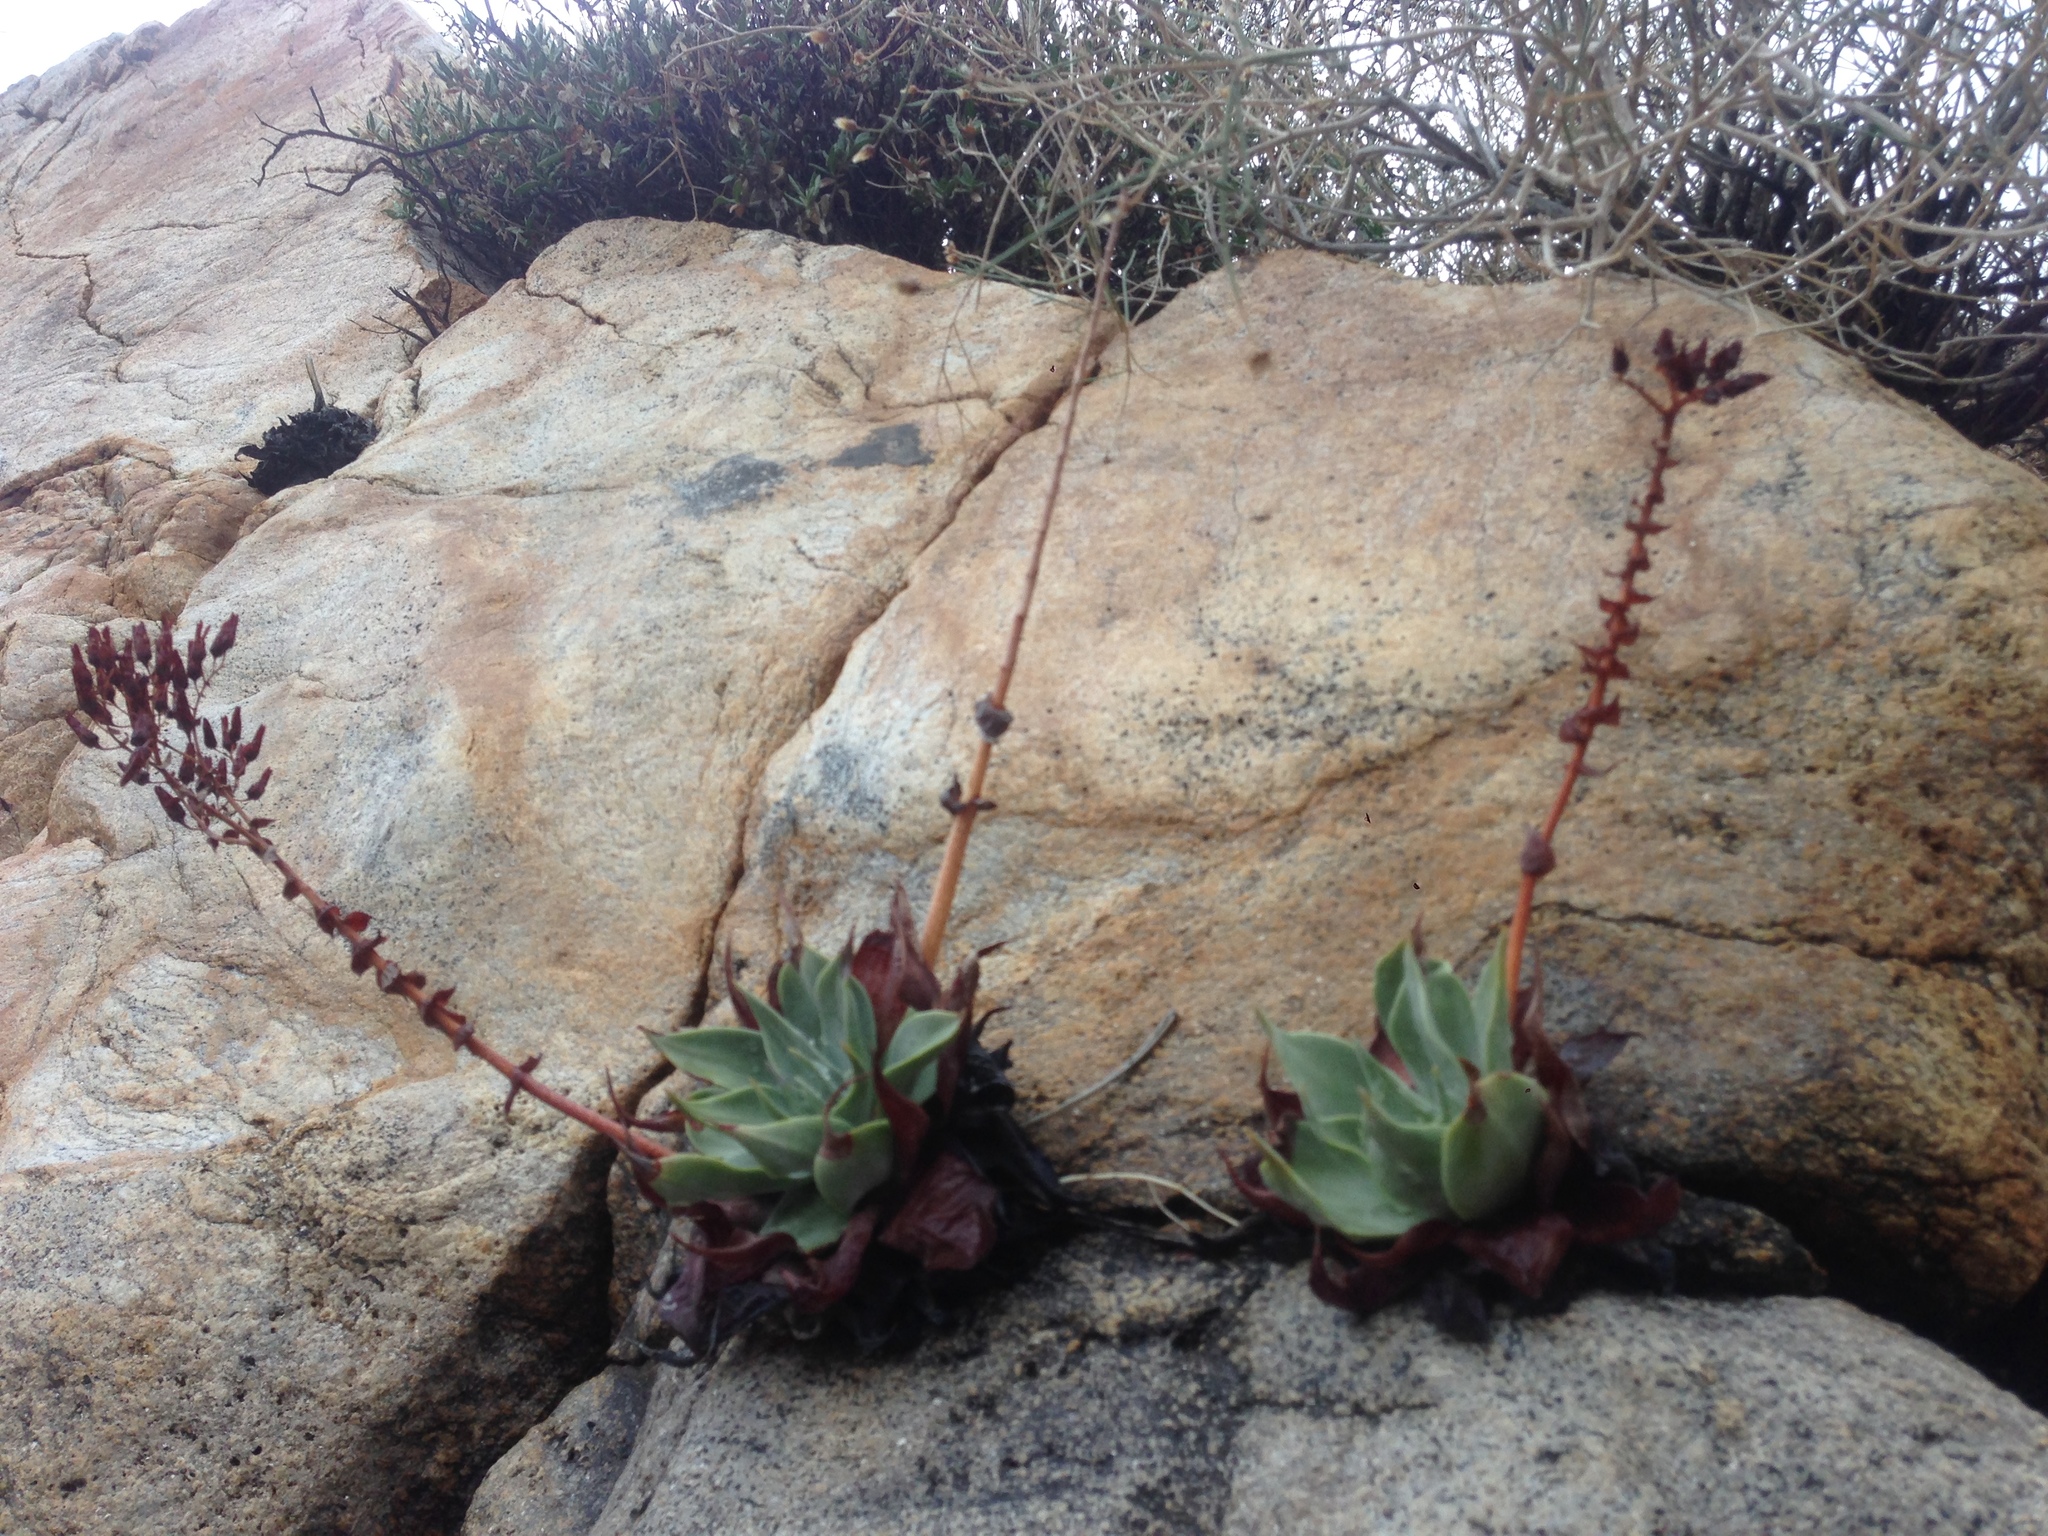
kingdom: Plantae
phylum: Tracheophyta
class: Magnoliopsida
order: Saxifragales
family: Crassulaceae
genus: Dudleya
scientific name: Dudleya arizonica
